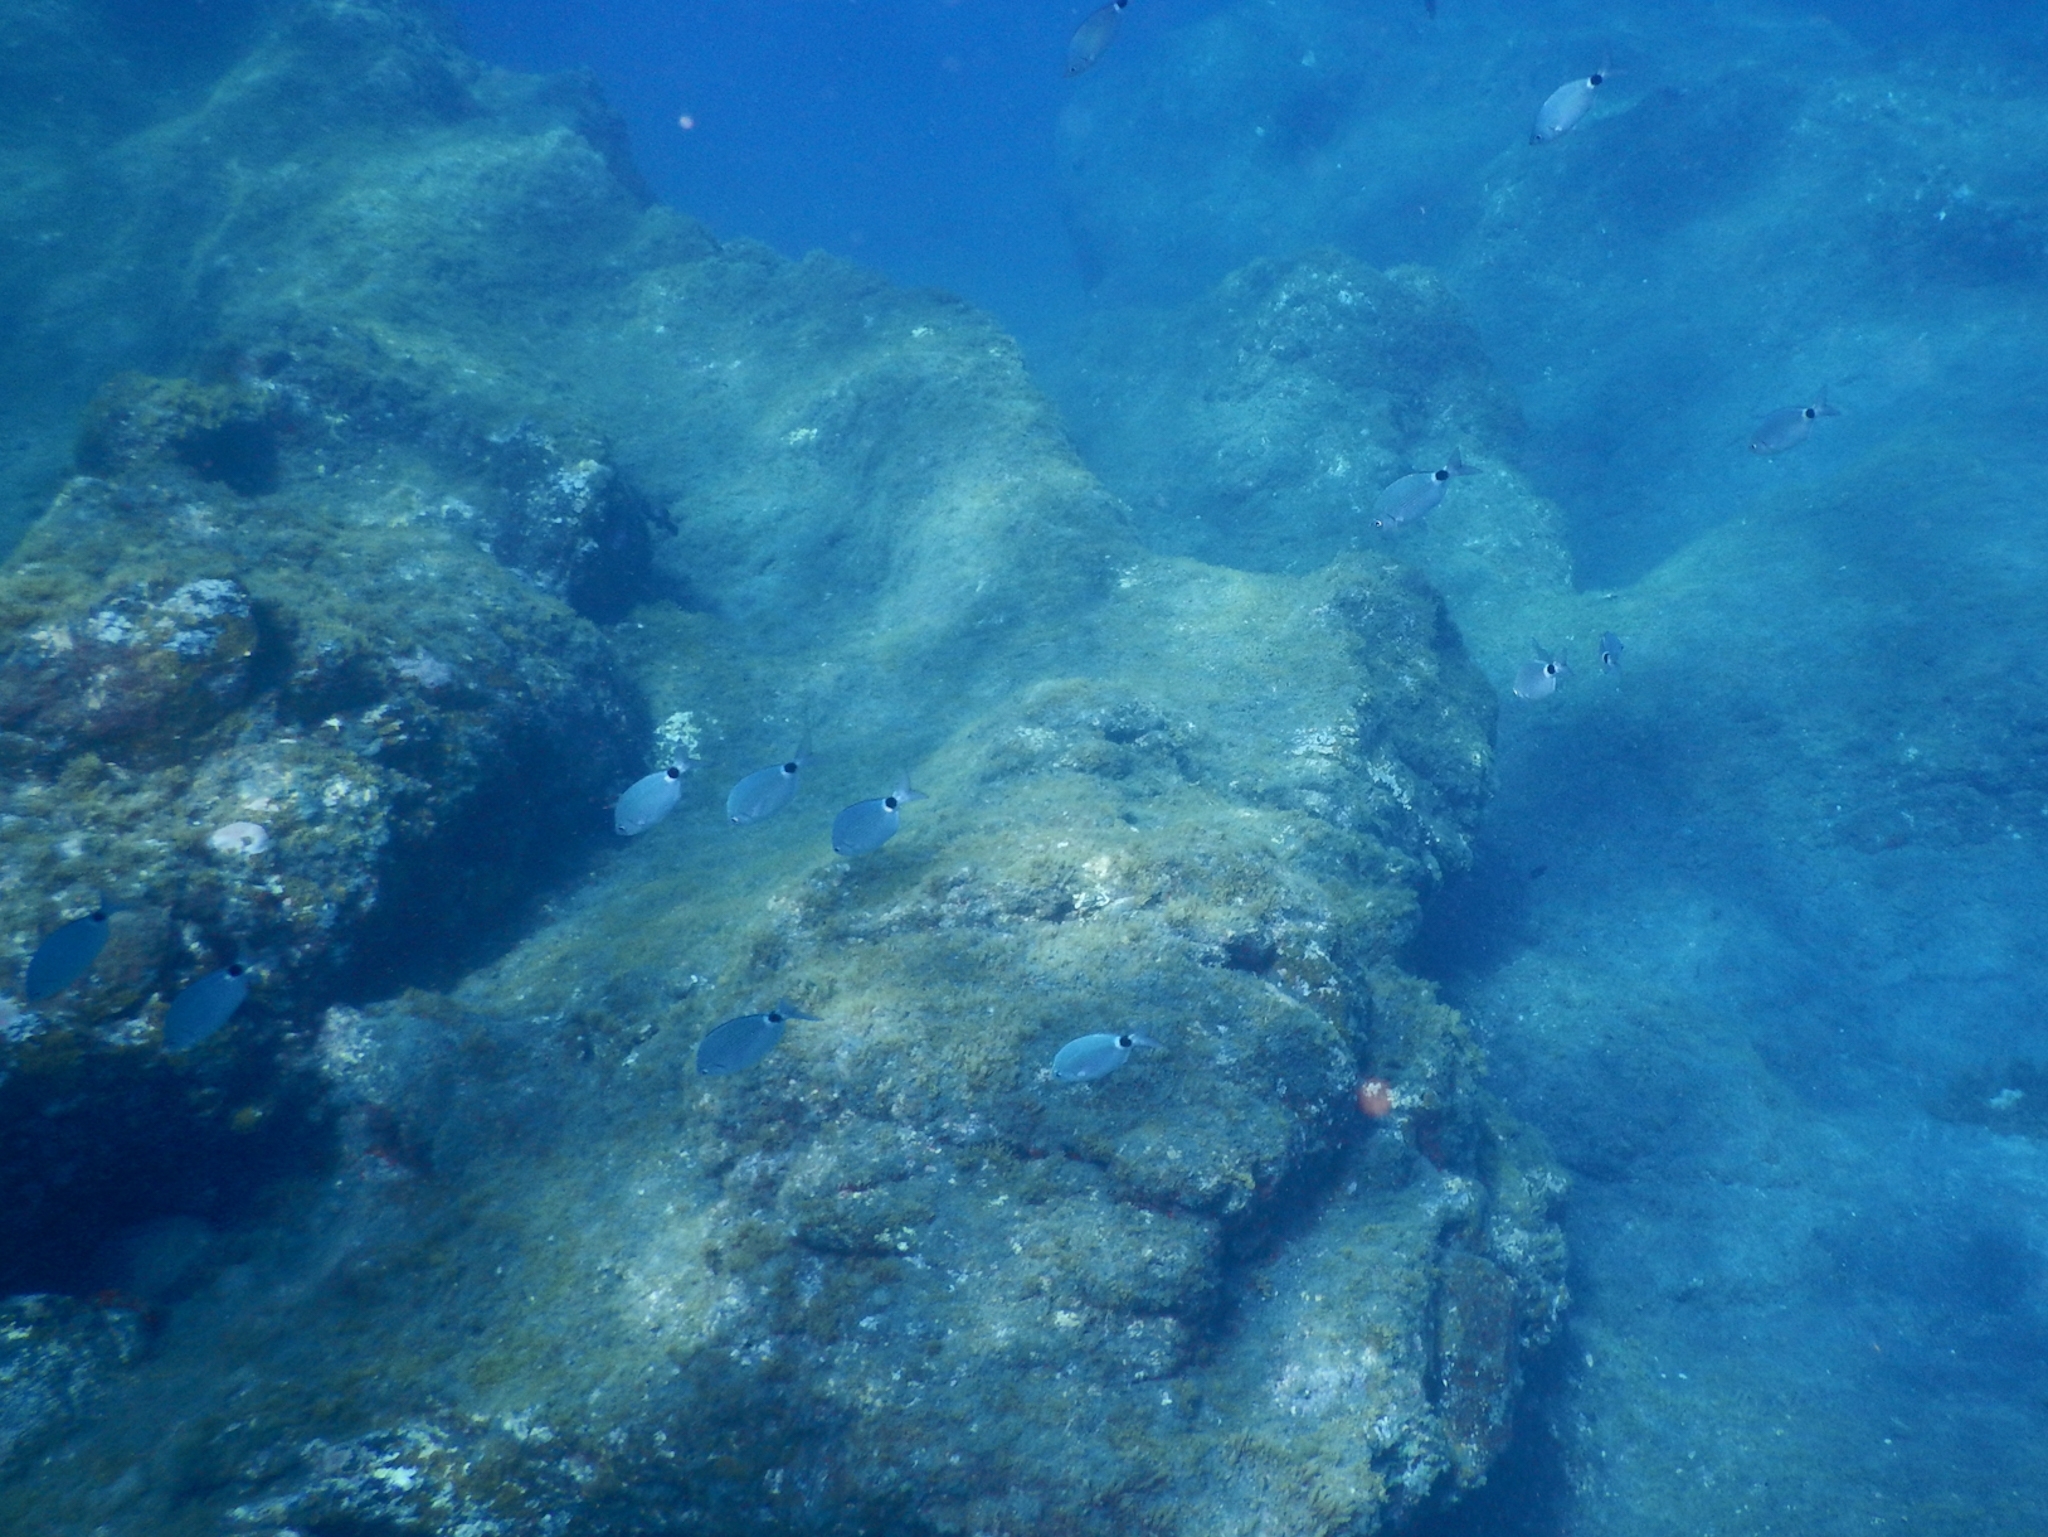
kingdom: Animalia
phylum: Chordata
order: Perciformes
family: Sparidae
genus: Oblada
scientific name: Oblada melanura
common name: Saddled seabream
